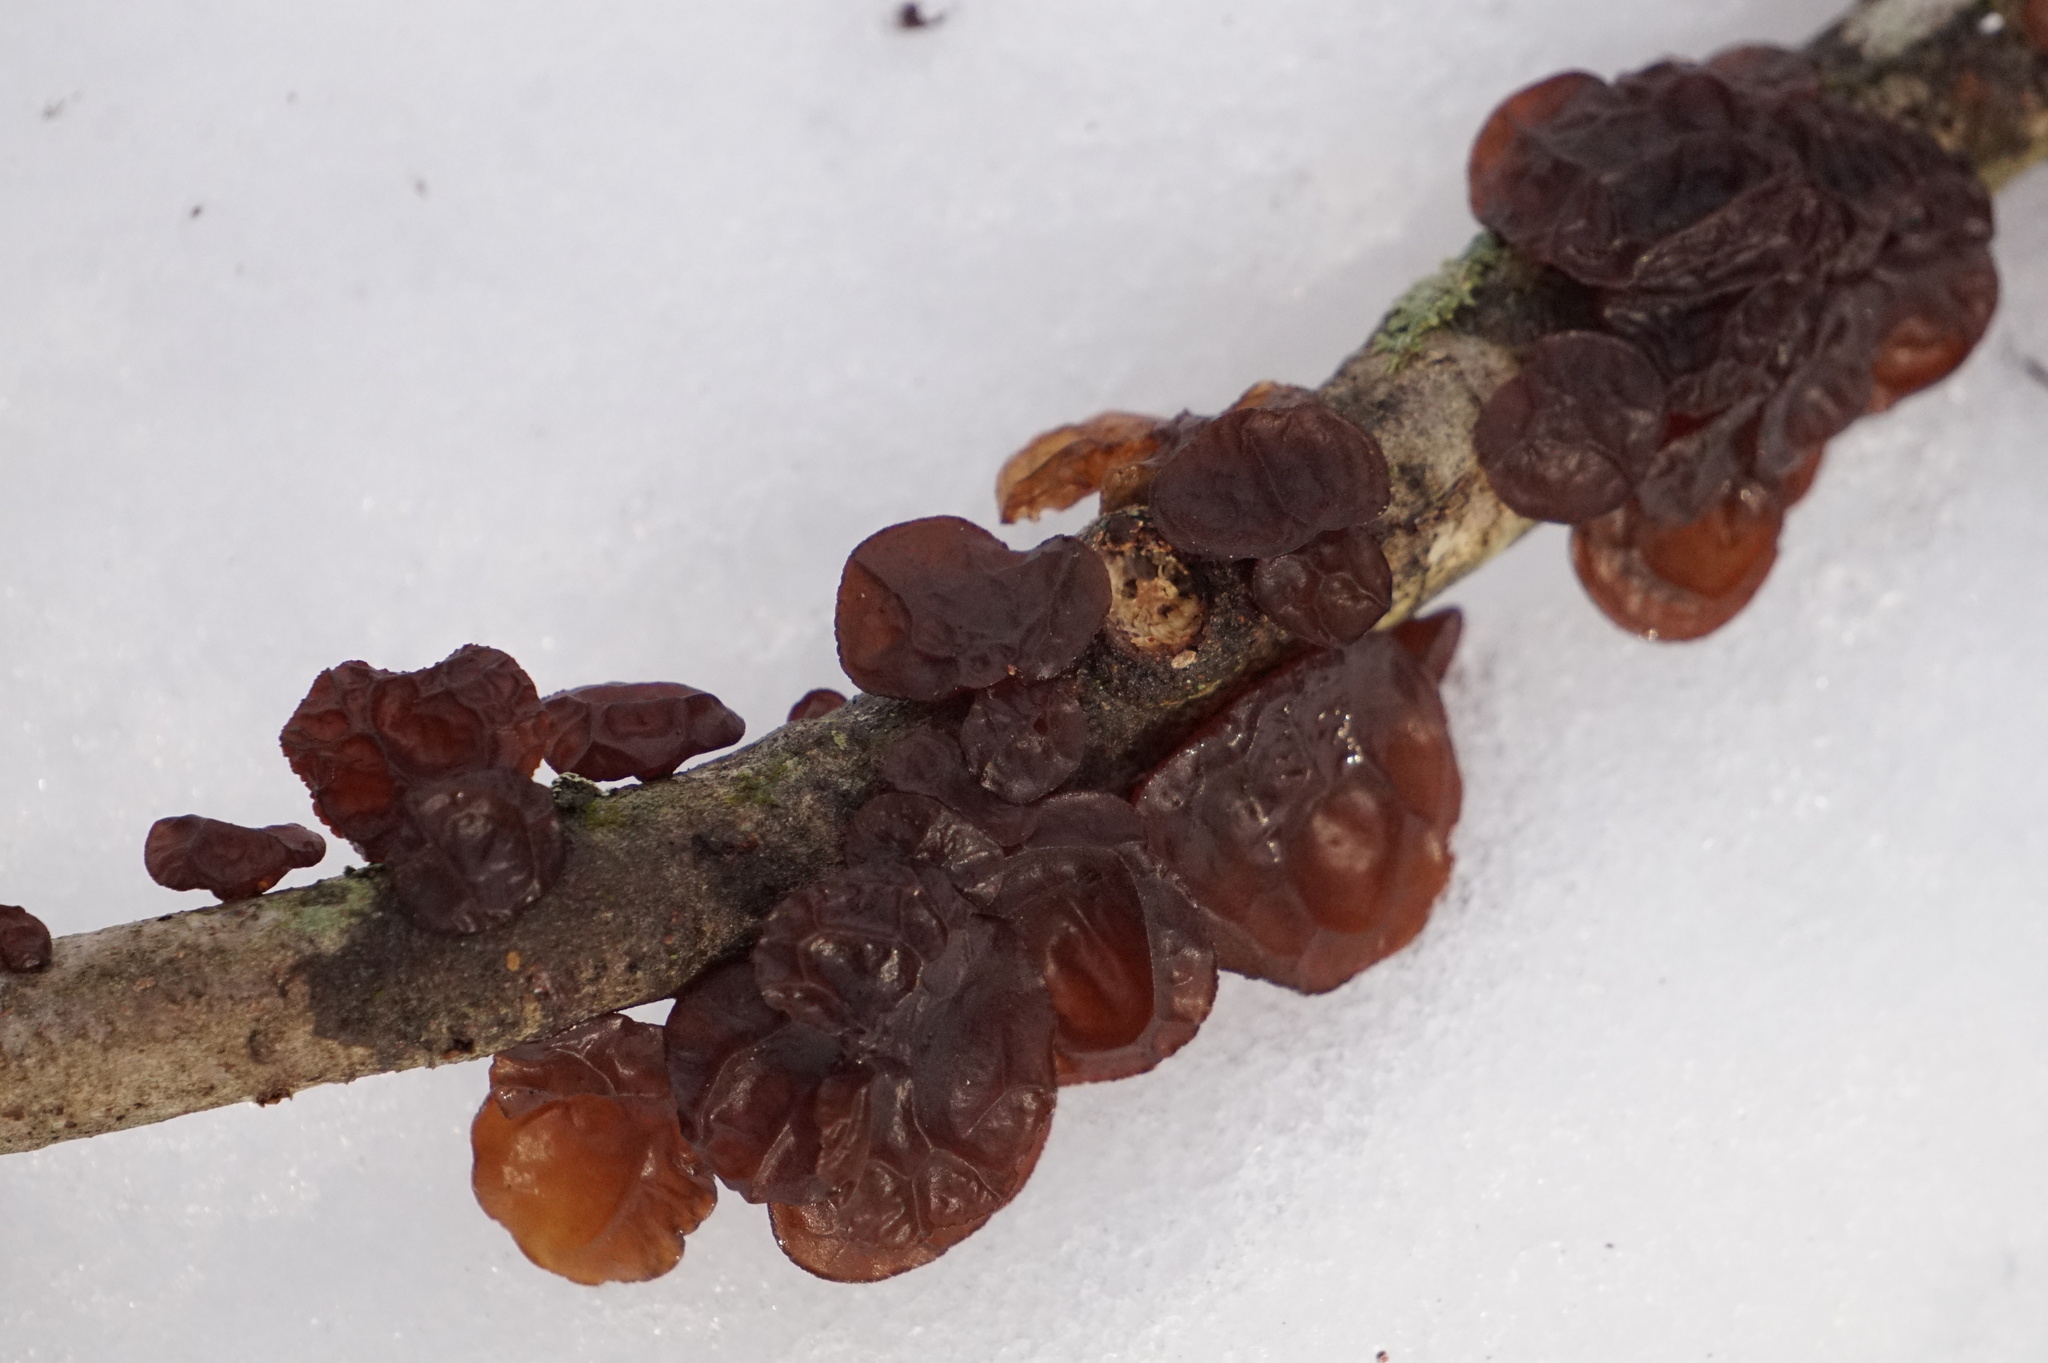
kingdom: Fungi
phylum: Basidiomycota
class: Agaricomycetes
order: Auriculariales
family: Auriculariaceae
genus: Exidia
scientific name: Exidia
